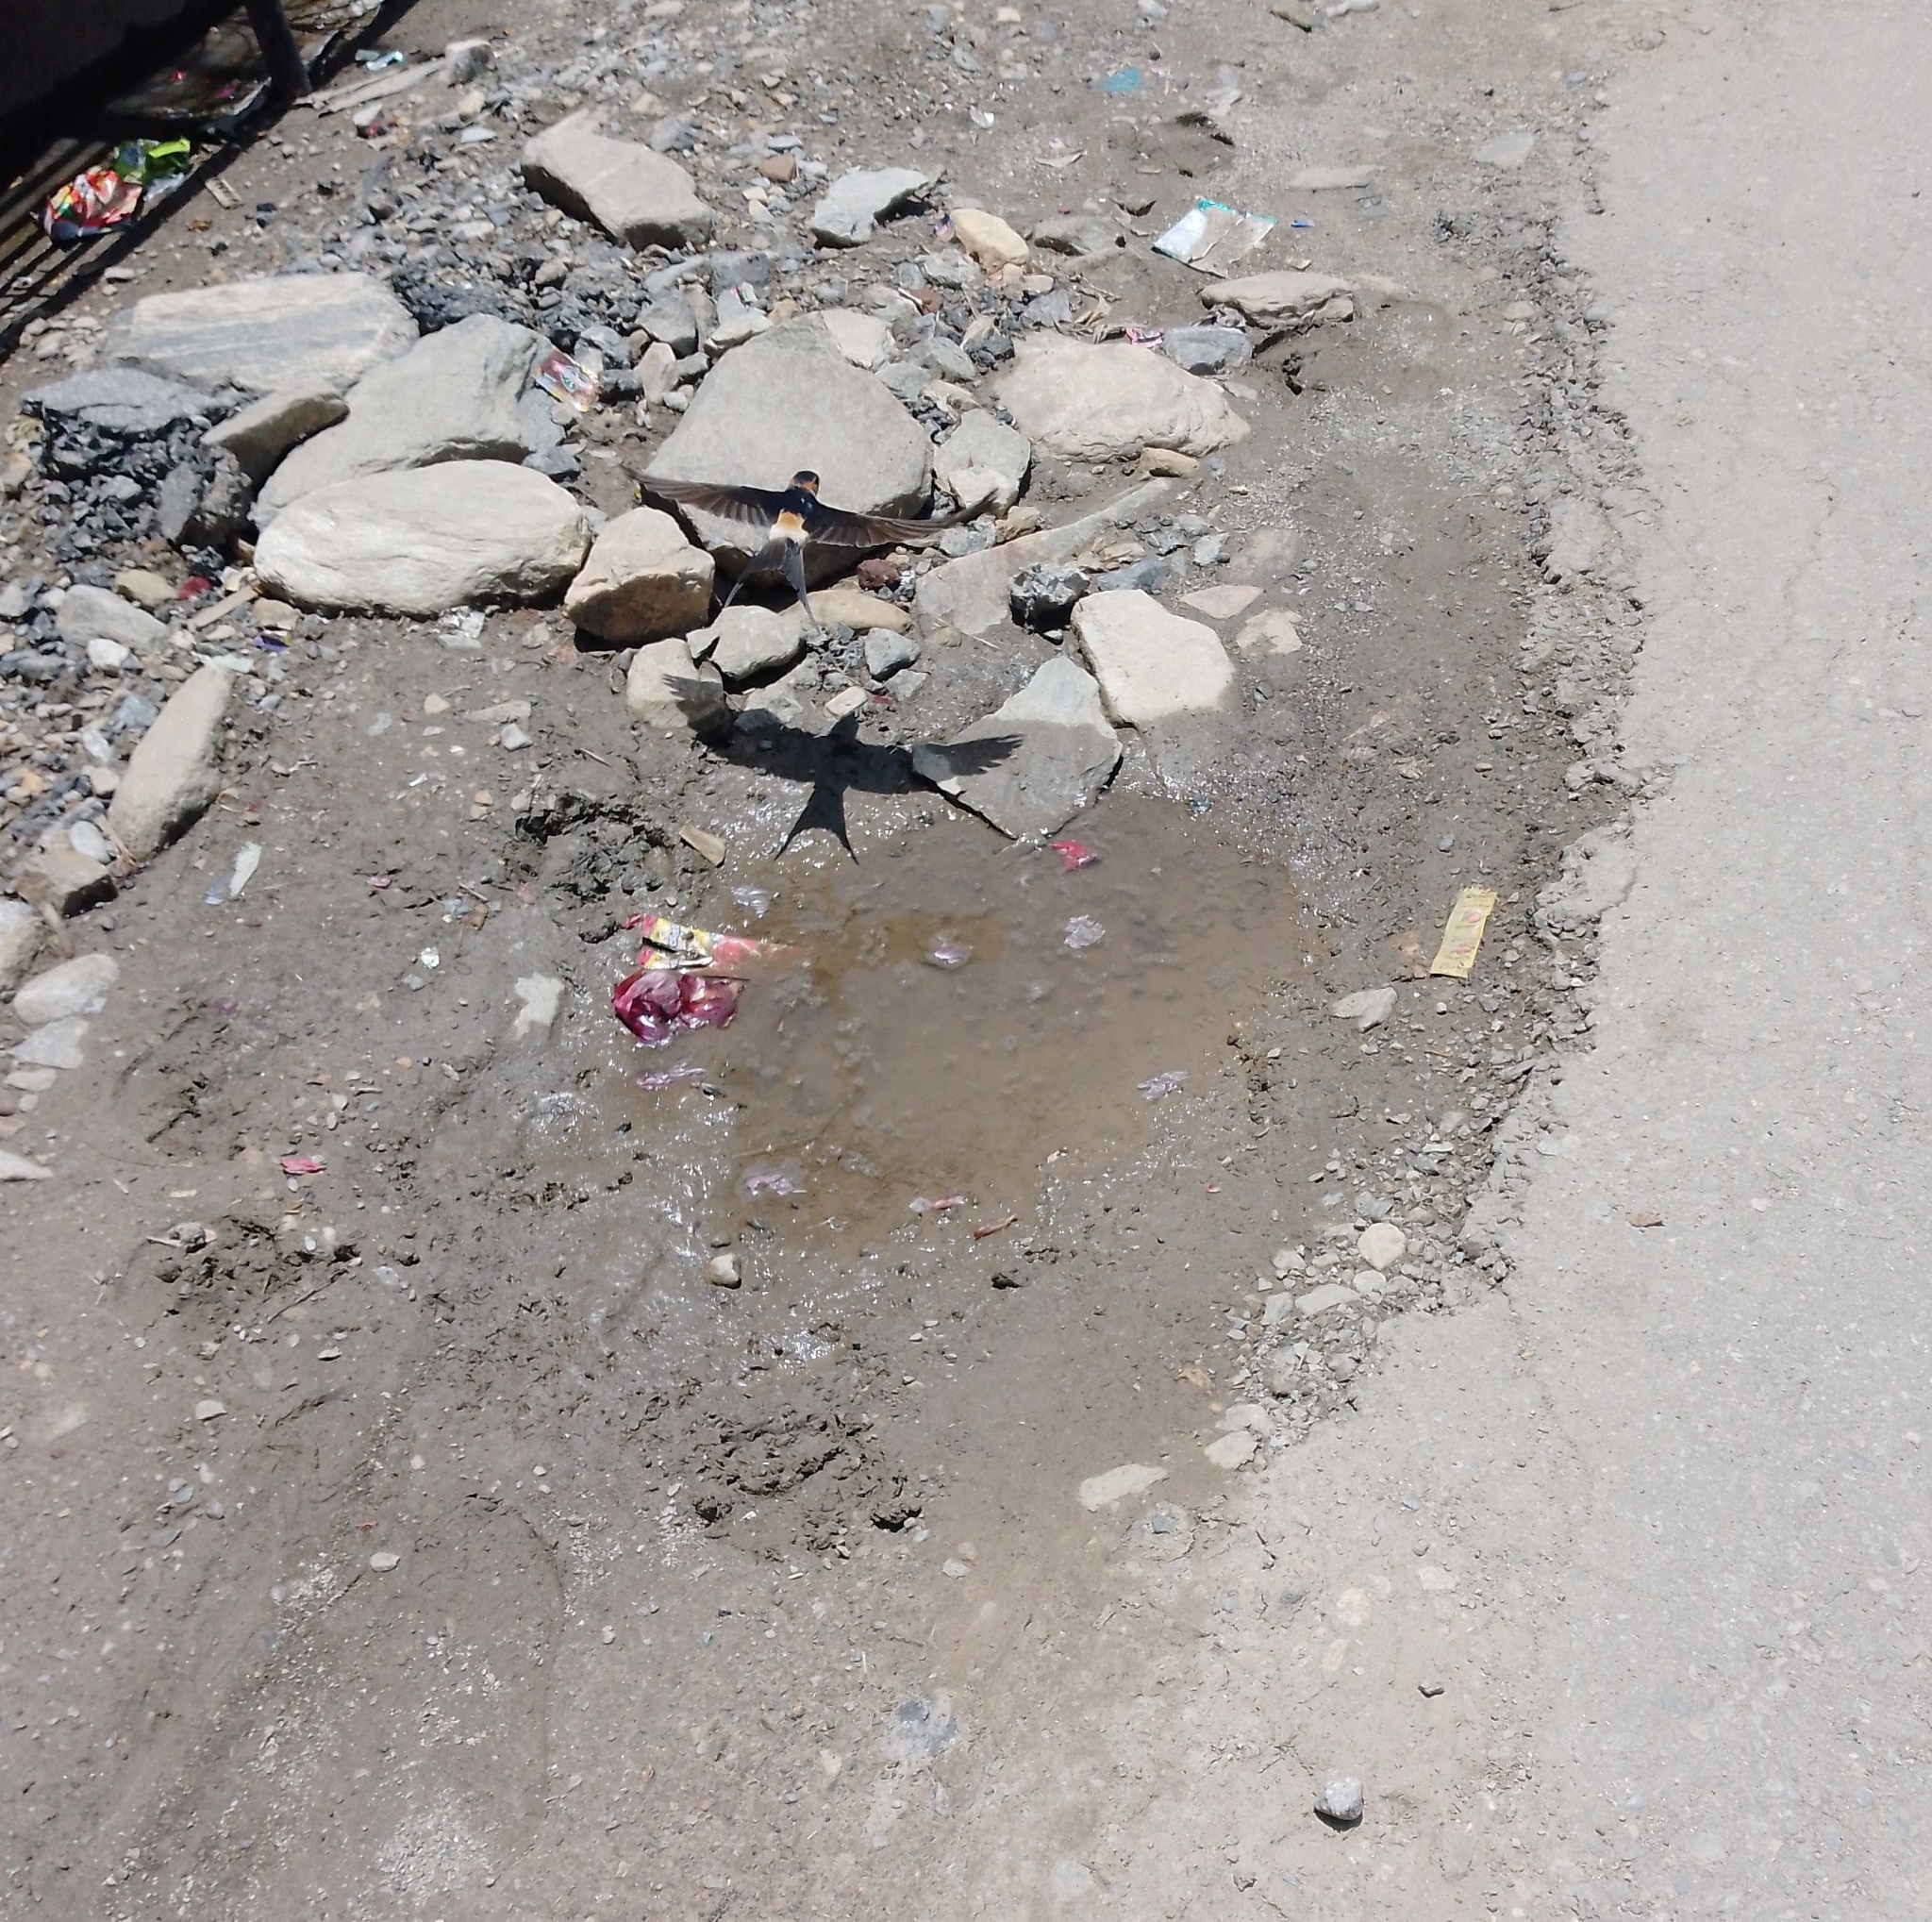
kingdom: Animalia
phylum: Chordata
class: Aves
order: Passeriformes
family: Hirundinidae
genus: Cecropis
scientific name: Cecropis daurica
